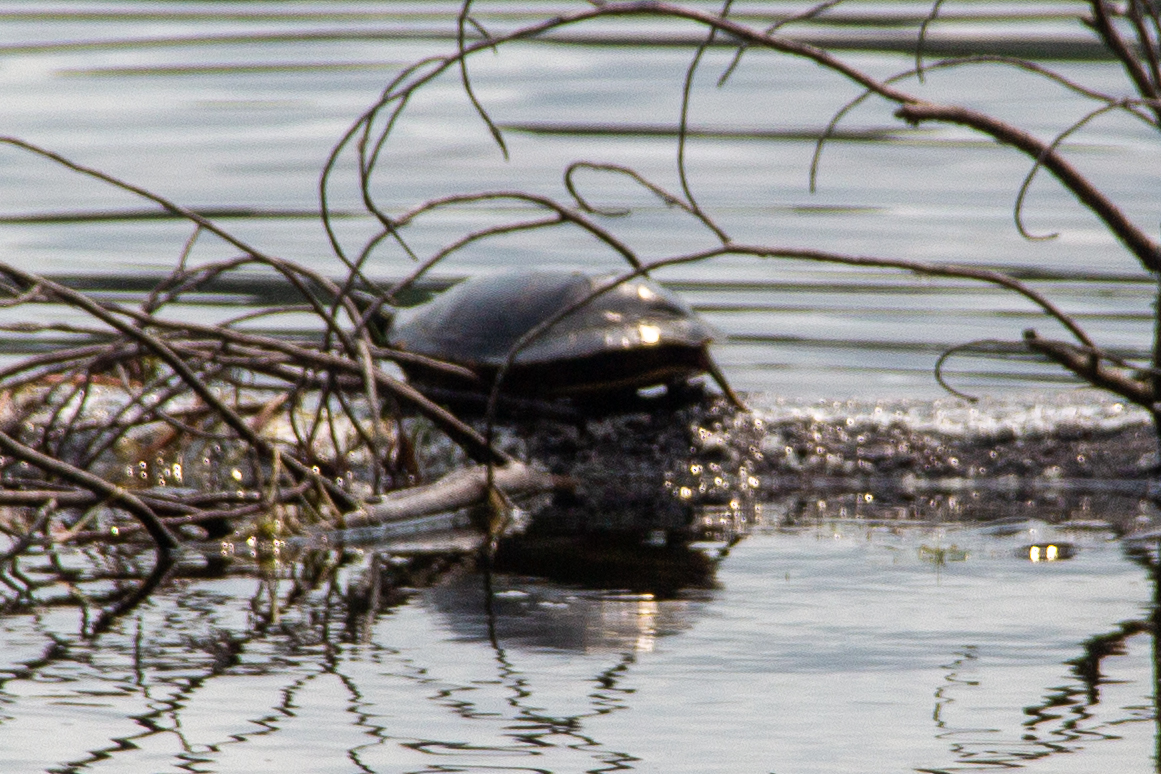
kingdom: Animalia
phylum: Chordata
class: Testudines
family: Emydidae
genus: Chrysemys
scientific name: Chrysemys picta
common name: Painted turtle
